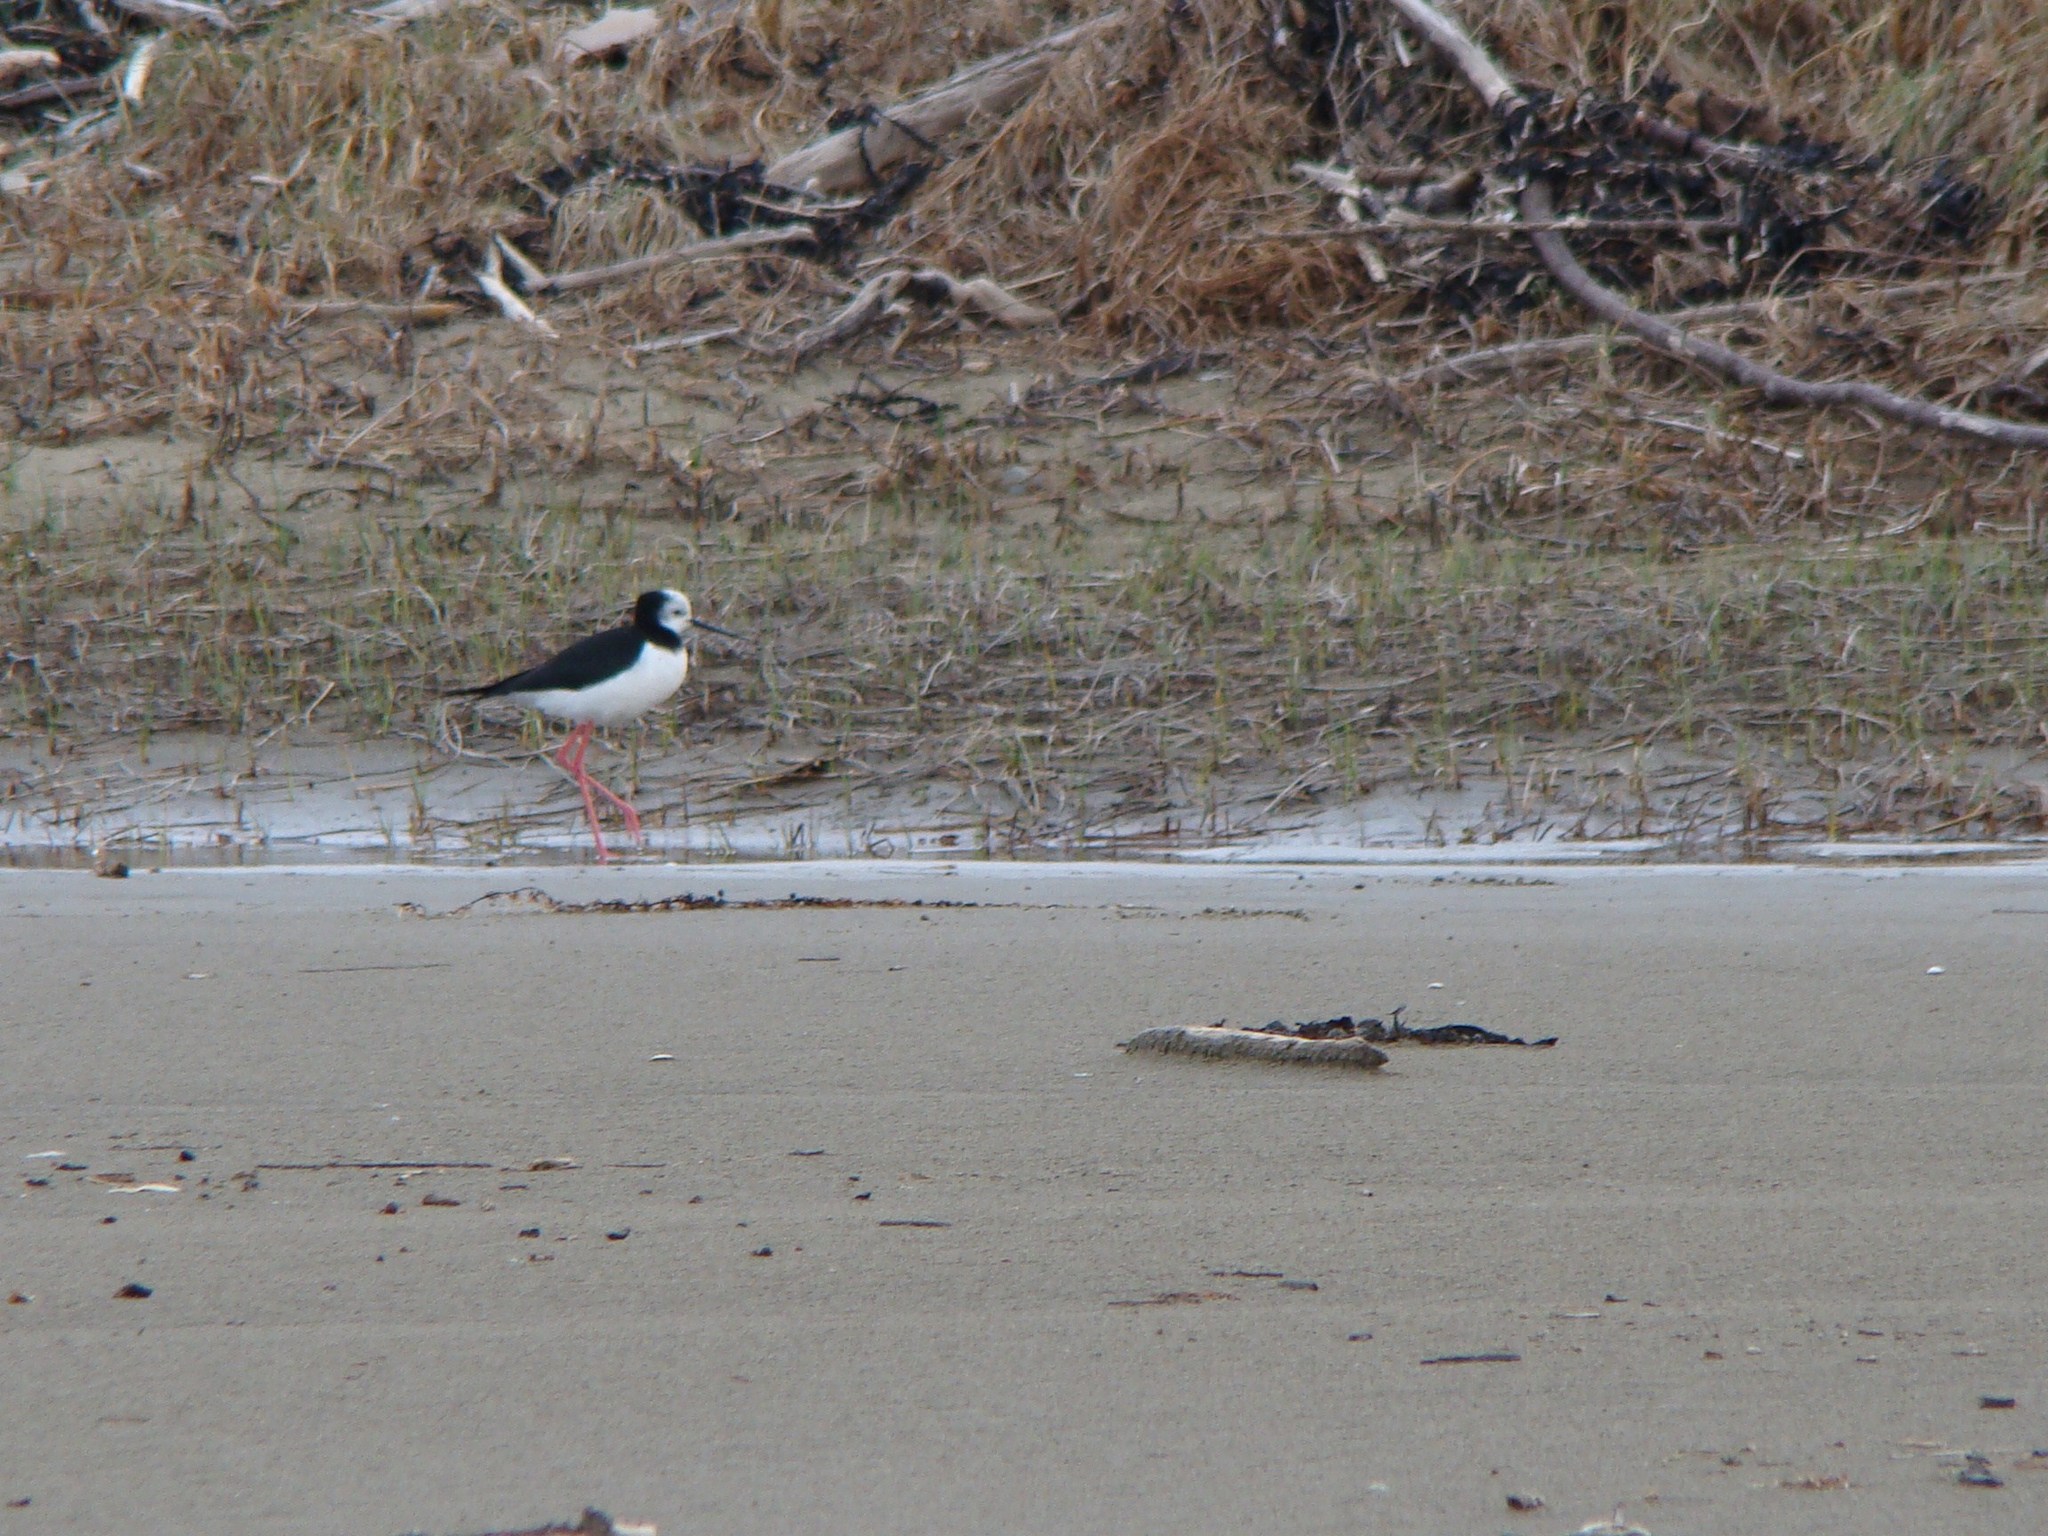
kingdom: Animalia
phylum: Chordata
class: Aves
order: Charadriiformes
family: Recurvirostridae
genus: Himantopus
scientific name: Himantopus leucocephalus
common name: White-headed stilt
